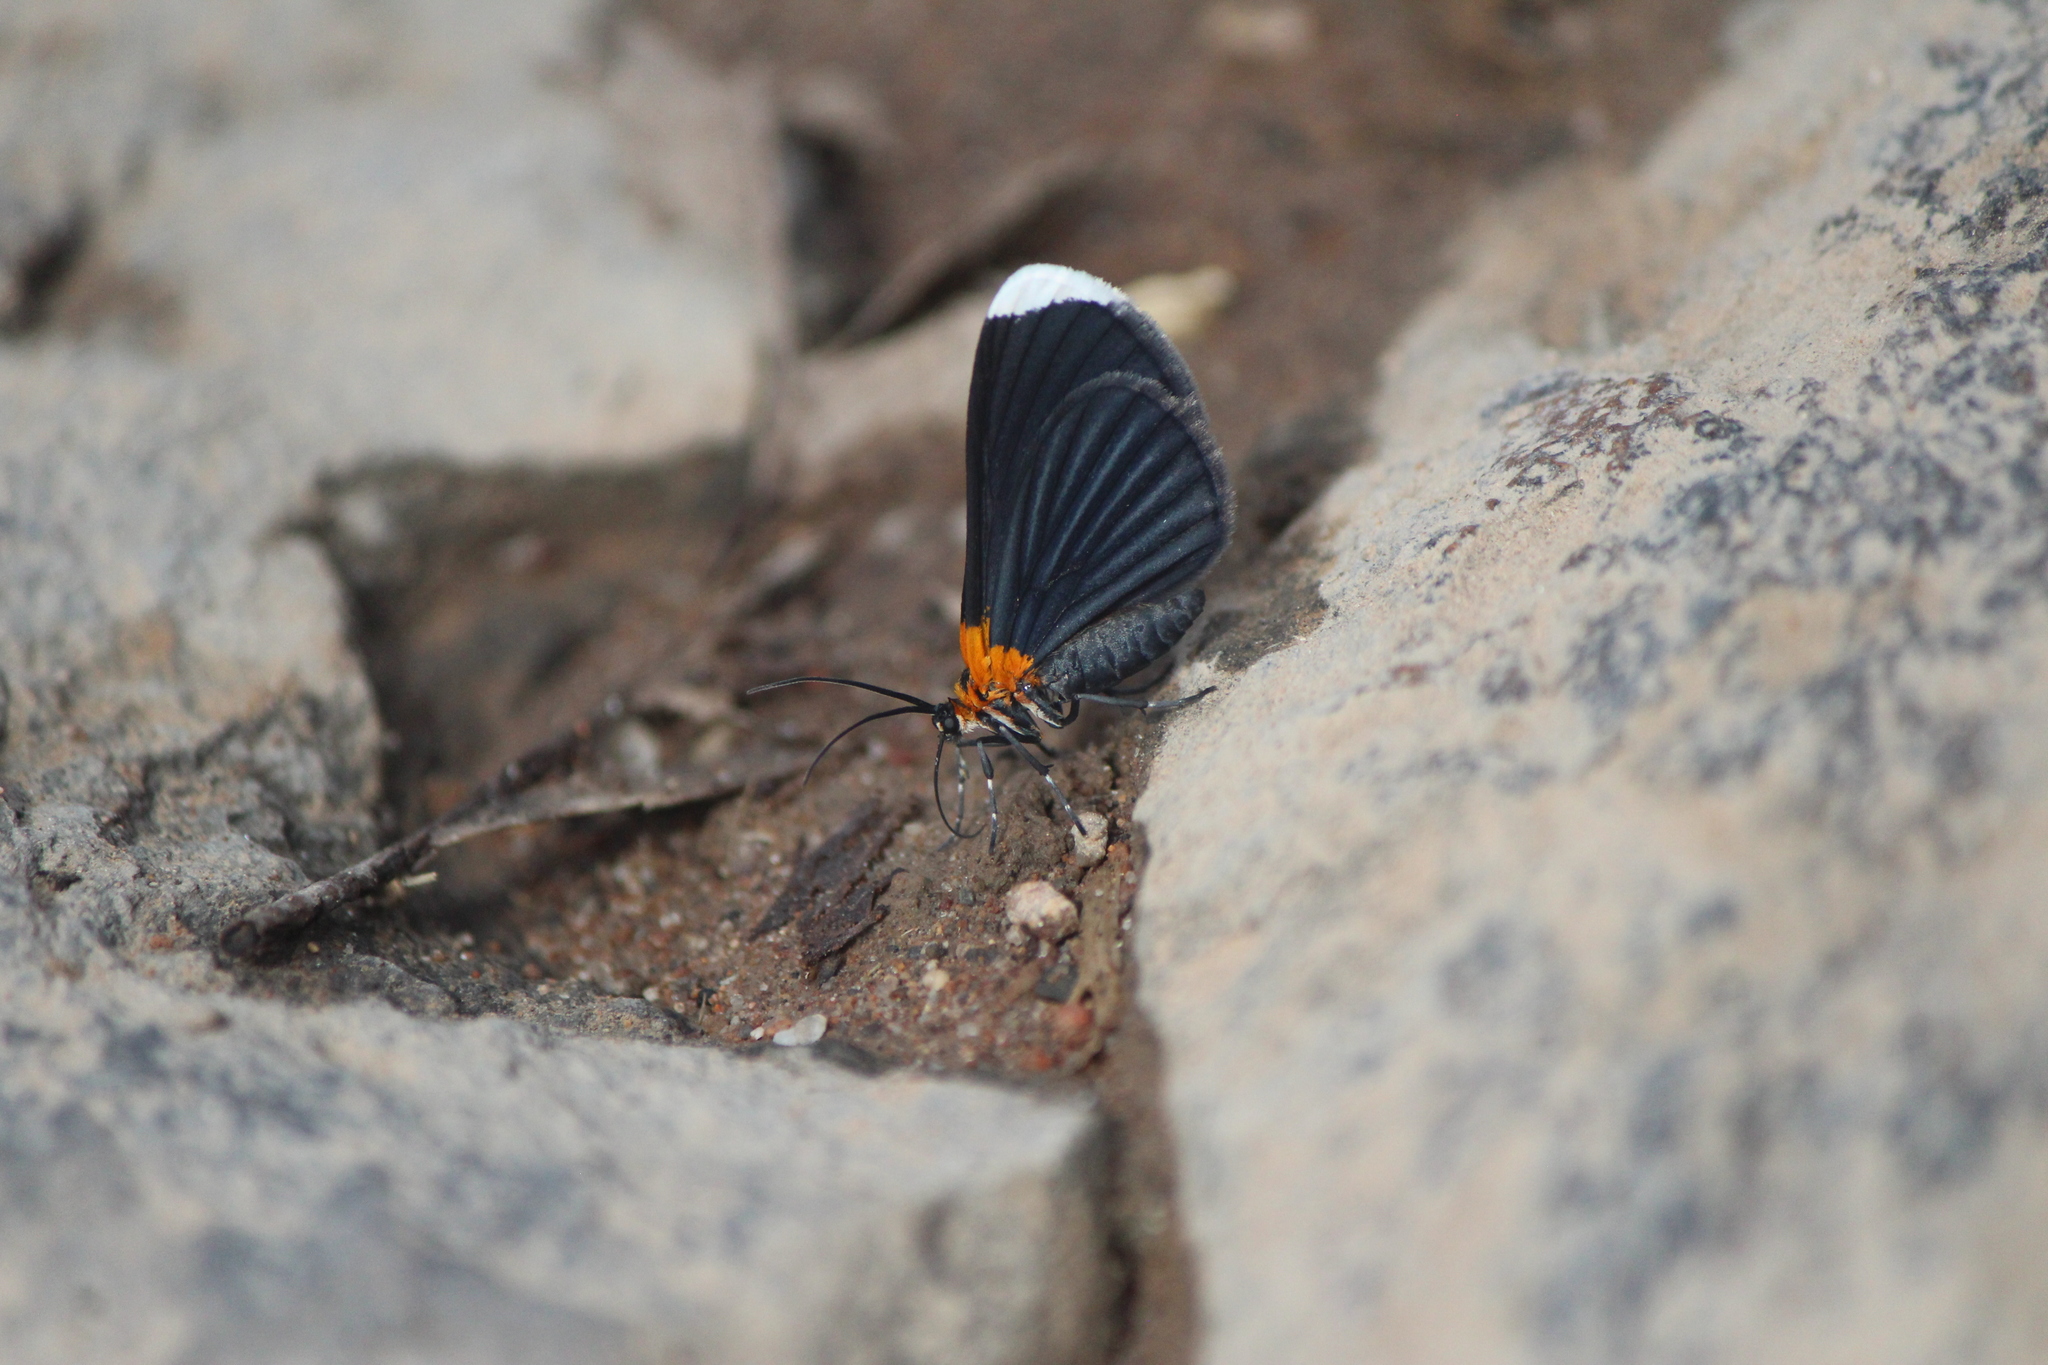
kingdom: Animalia
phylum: Arthropoda
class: Insecta
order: Lepidoptera
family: Geometridae
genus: Eutrepsia
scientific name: Eutrepsia phoebe
